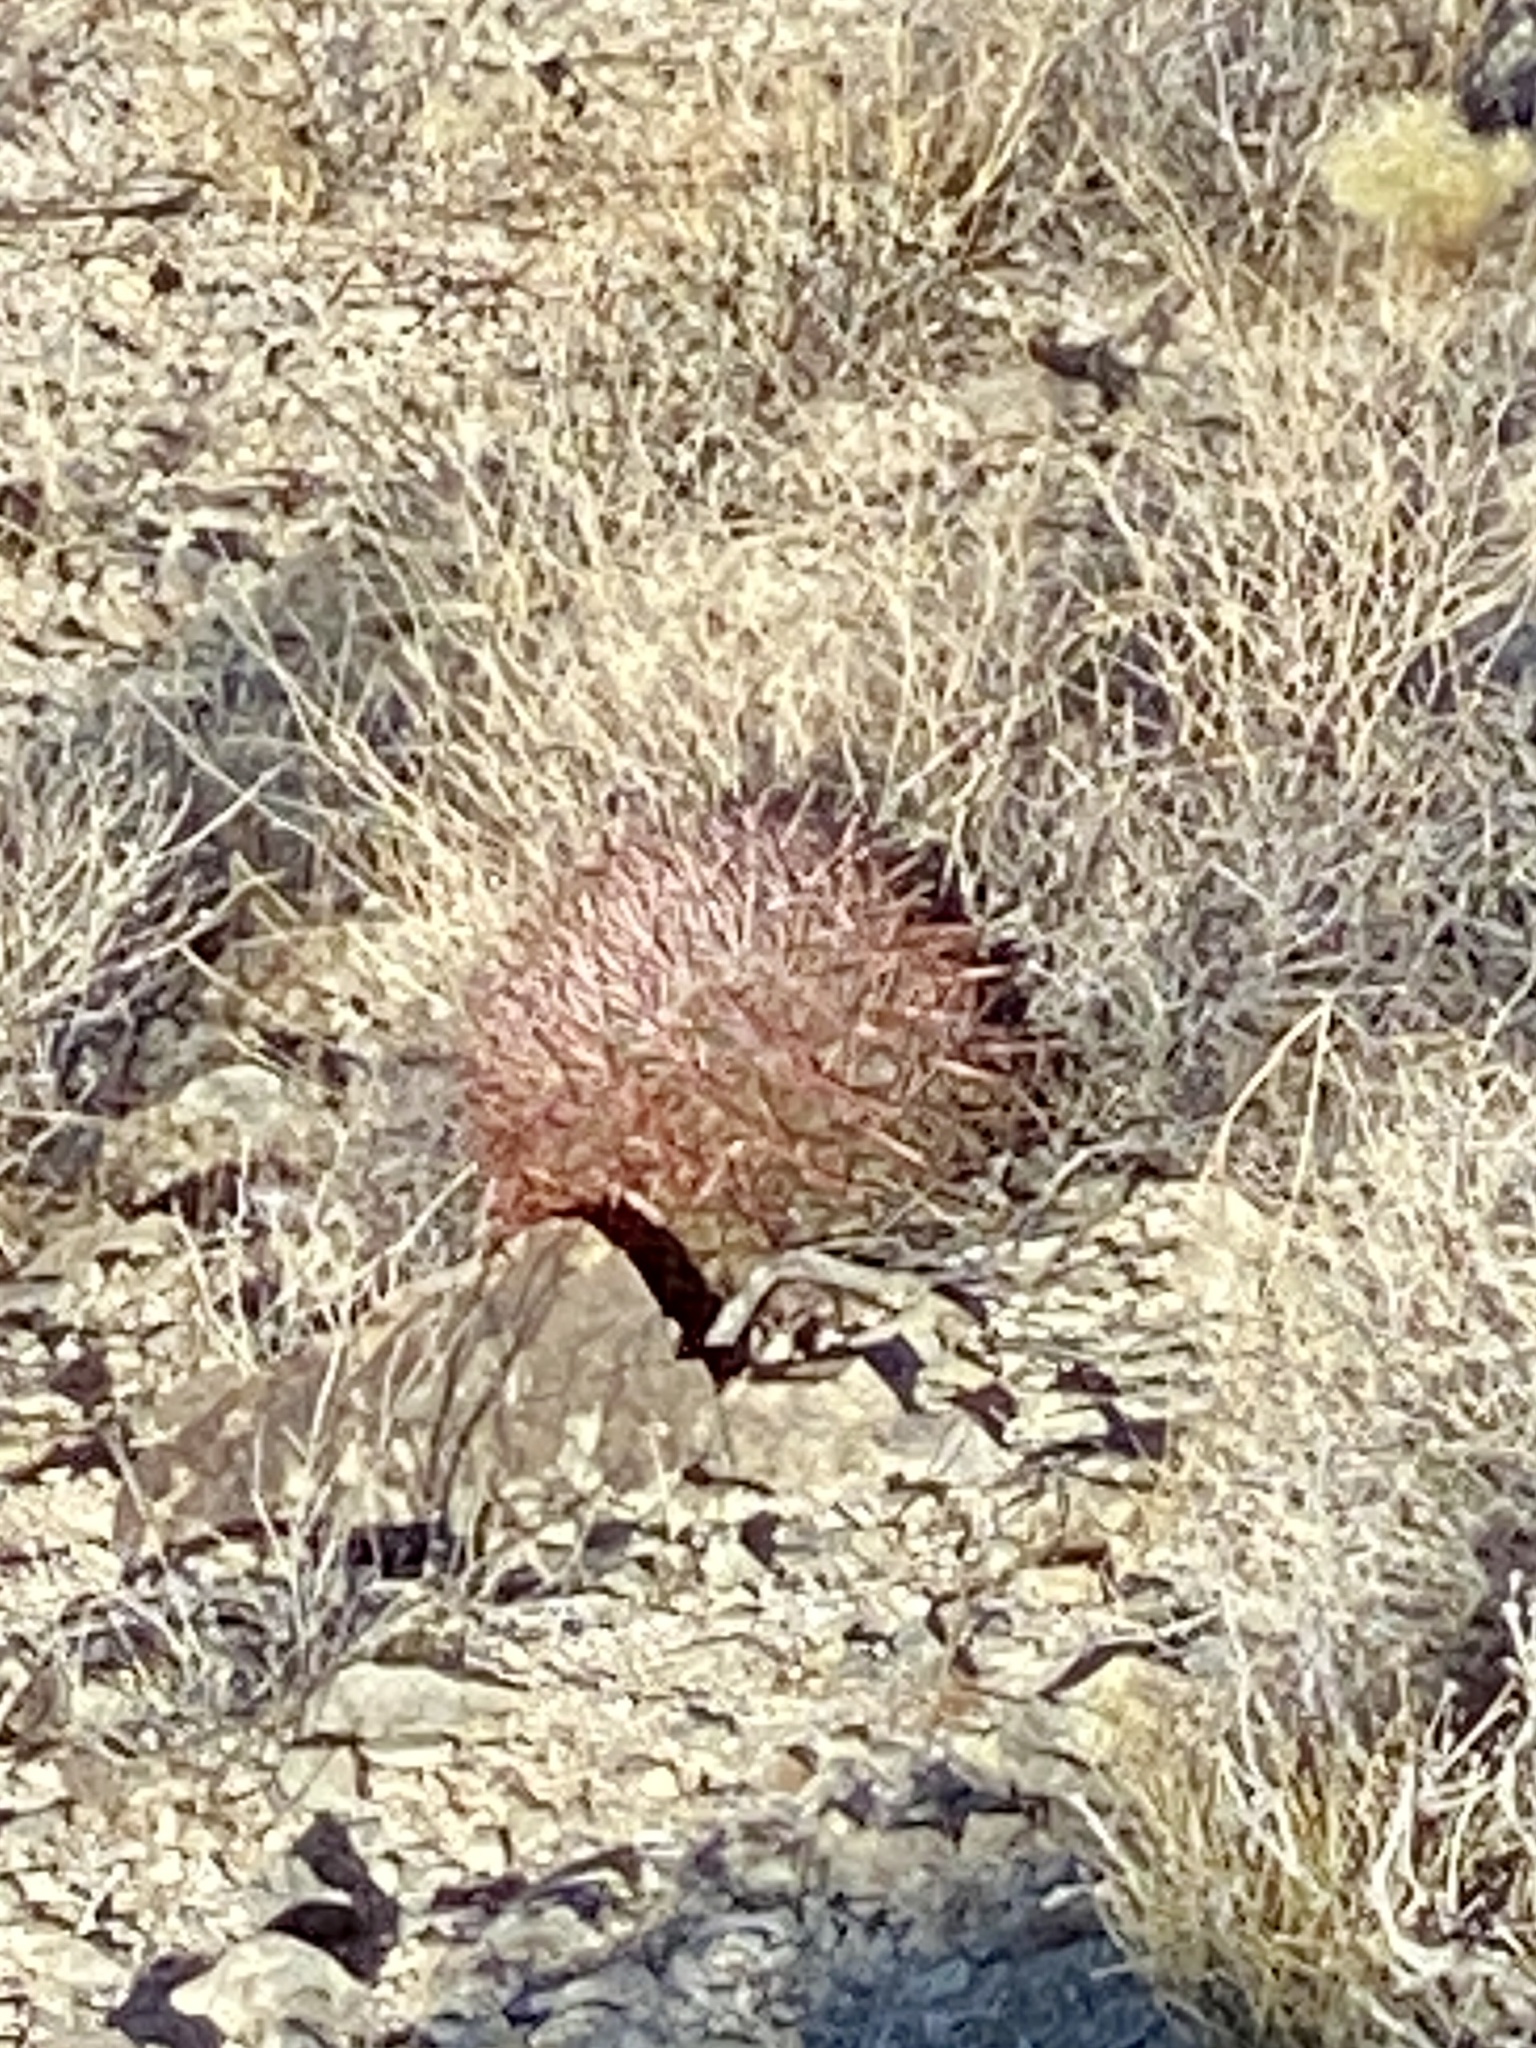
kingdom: Plantae
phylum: Tracheophyta
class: Magnoliopsida
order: Caryophyllales
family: Cactaceae
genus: Ferocactus
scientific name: Ferocactus cylindraceus
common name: California barrel cactus
